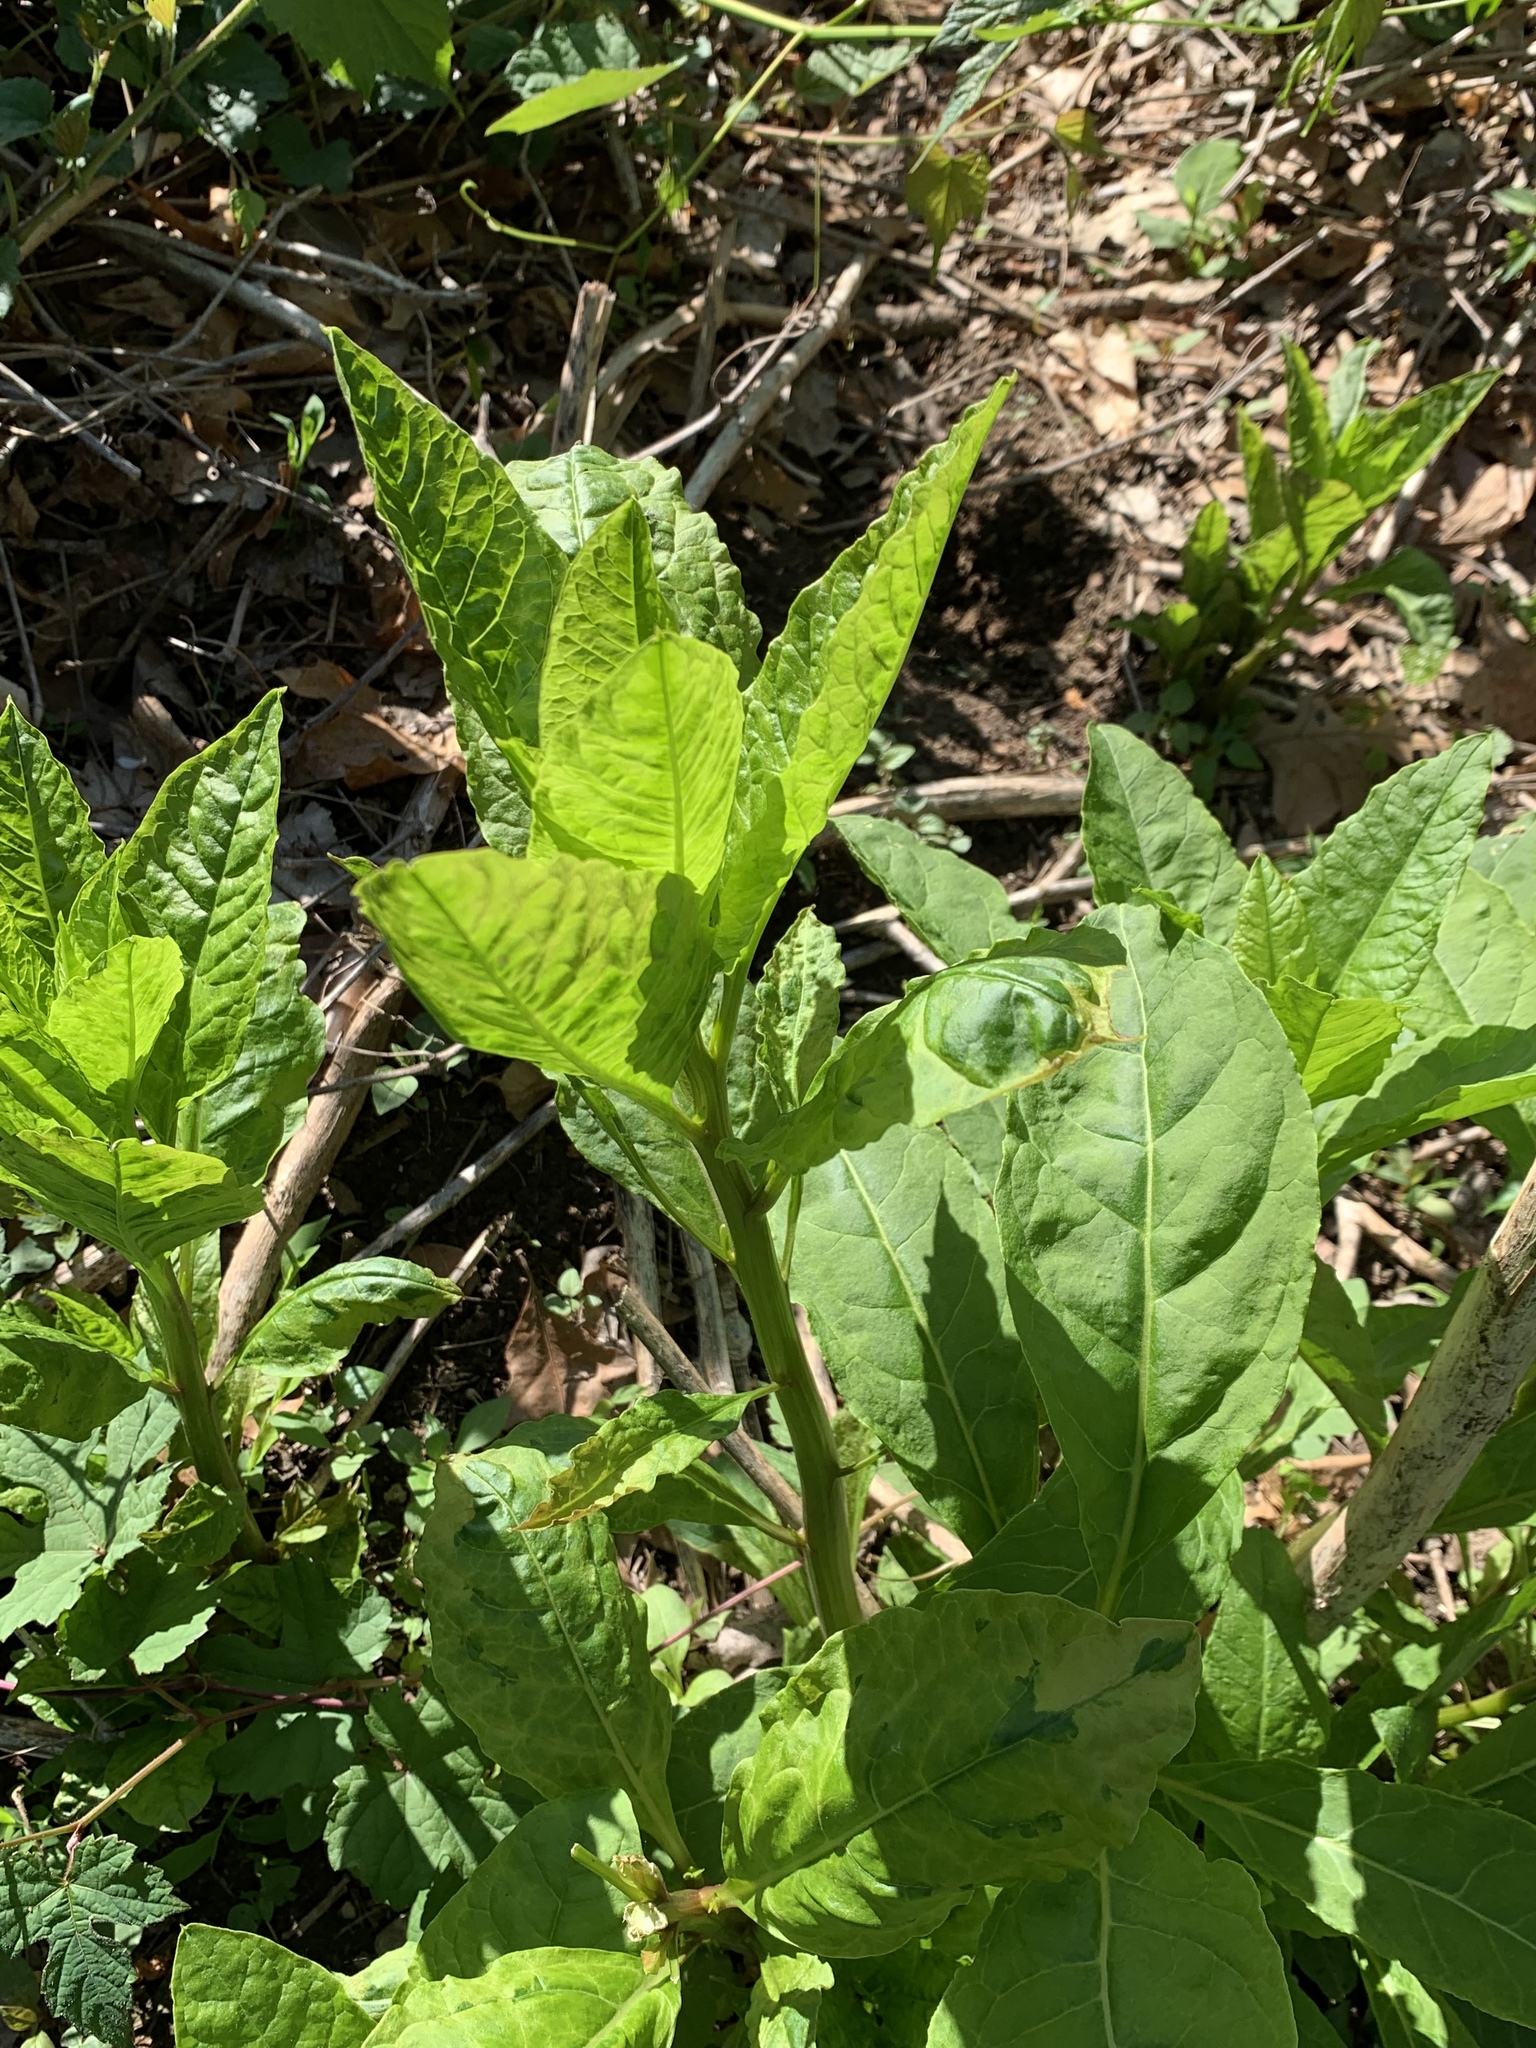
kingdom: Plantae
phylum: Tracheophyta
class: Magnoliopsida
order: Caryophyllales
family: Phytolaccaceae
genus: Phytolacca
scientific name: Phytolacca americana
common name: American pokeweed
